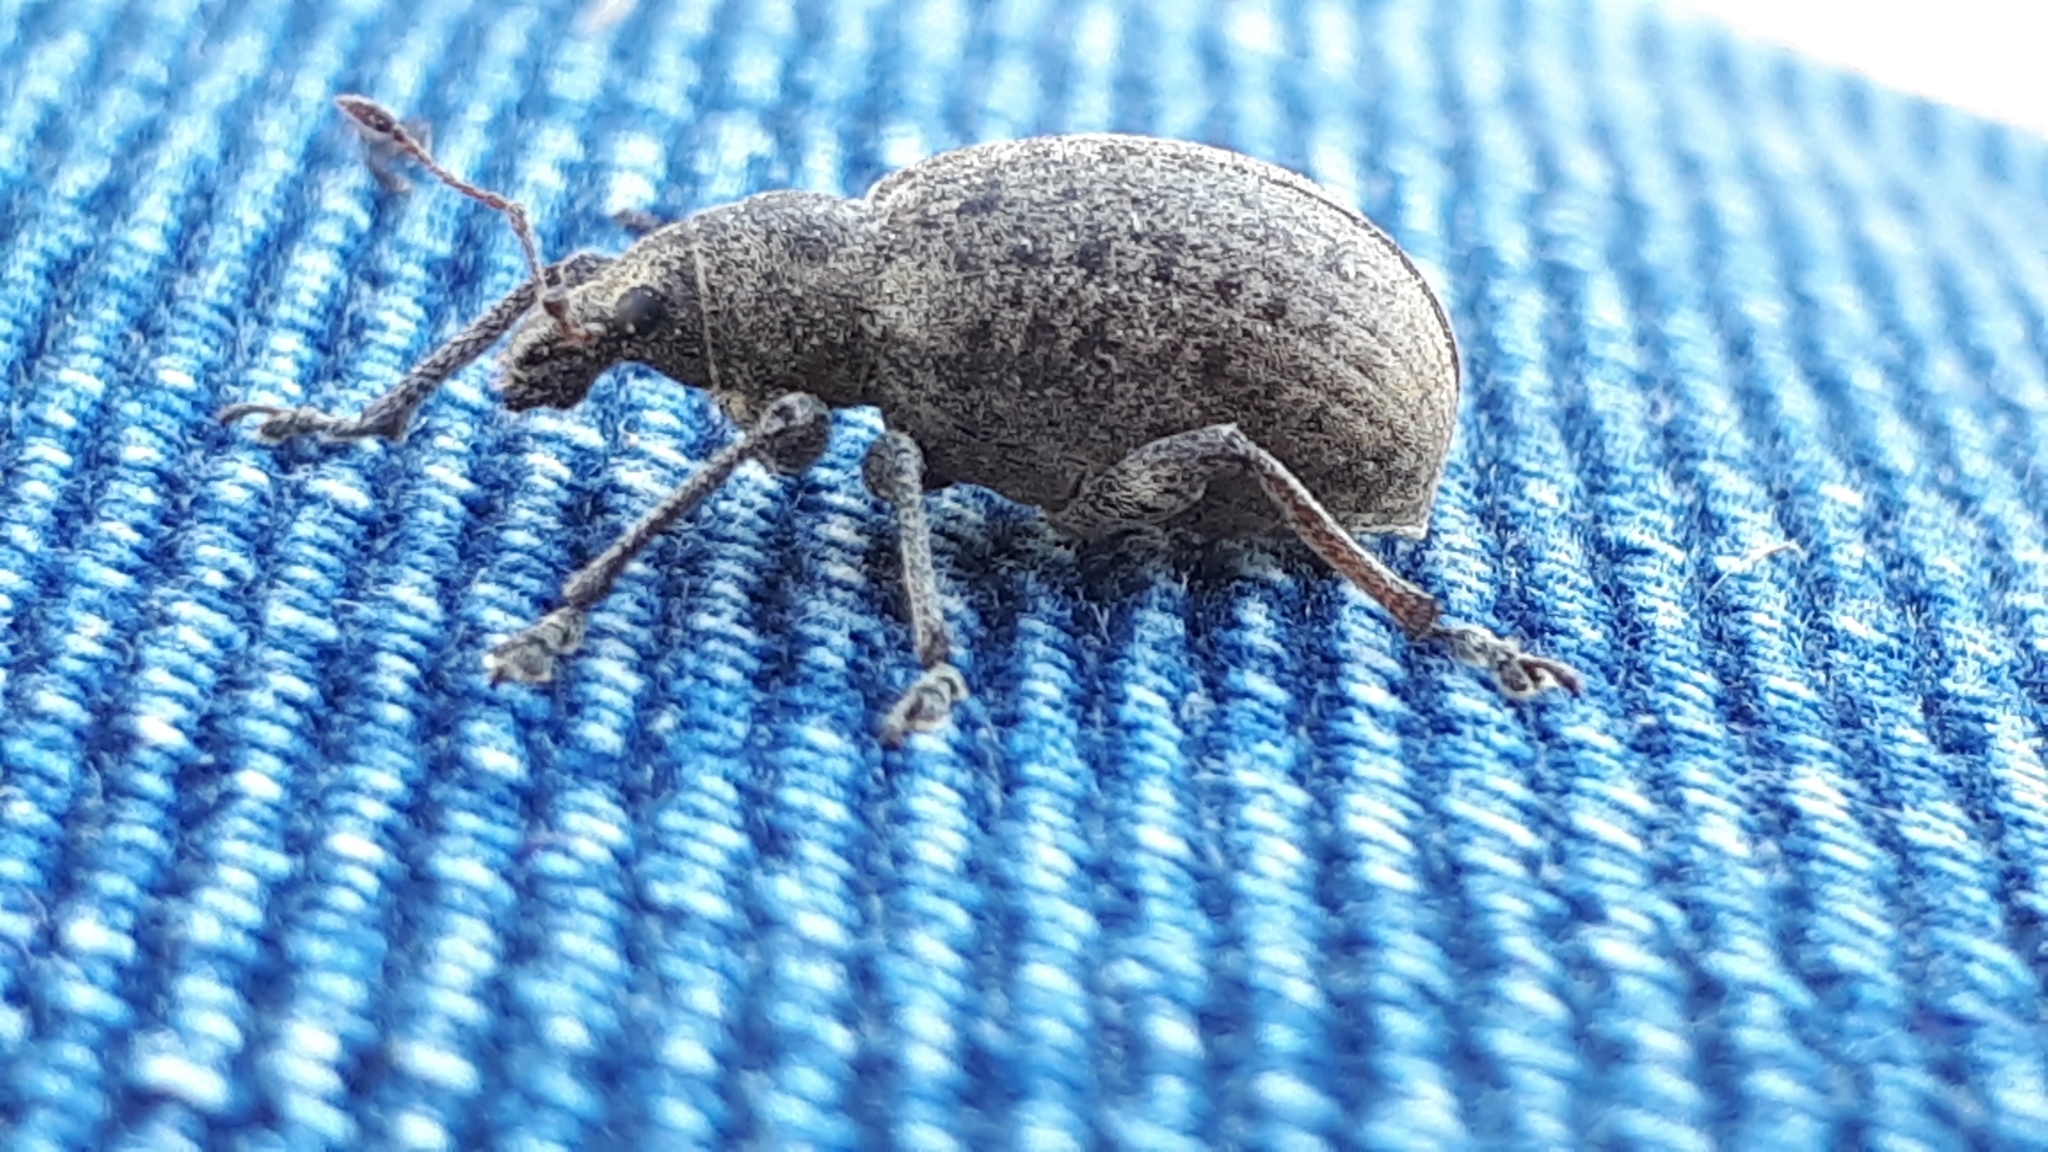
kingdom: Animalia
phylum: Arthropoda
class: Insecta
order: Coleoptera
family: Curculionidae
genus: Liophloeus
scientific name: Liophloeus tessulatus
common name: Weevil
